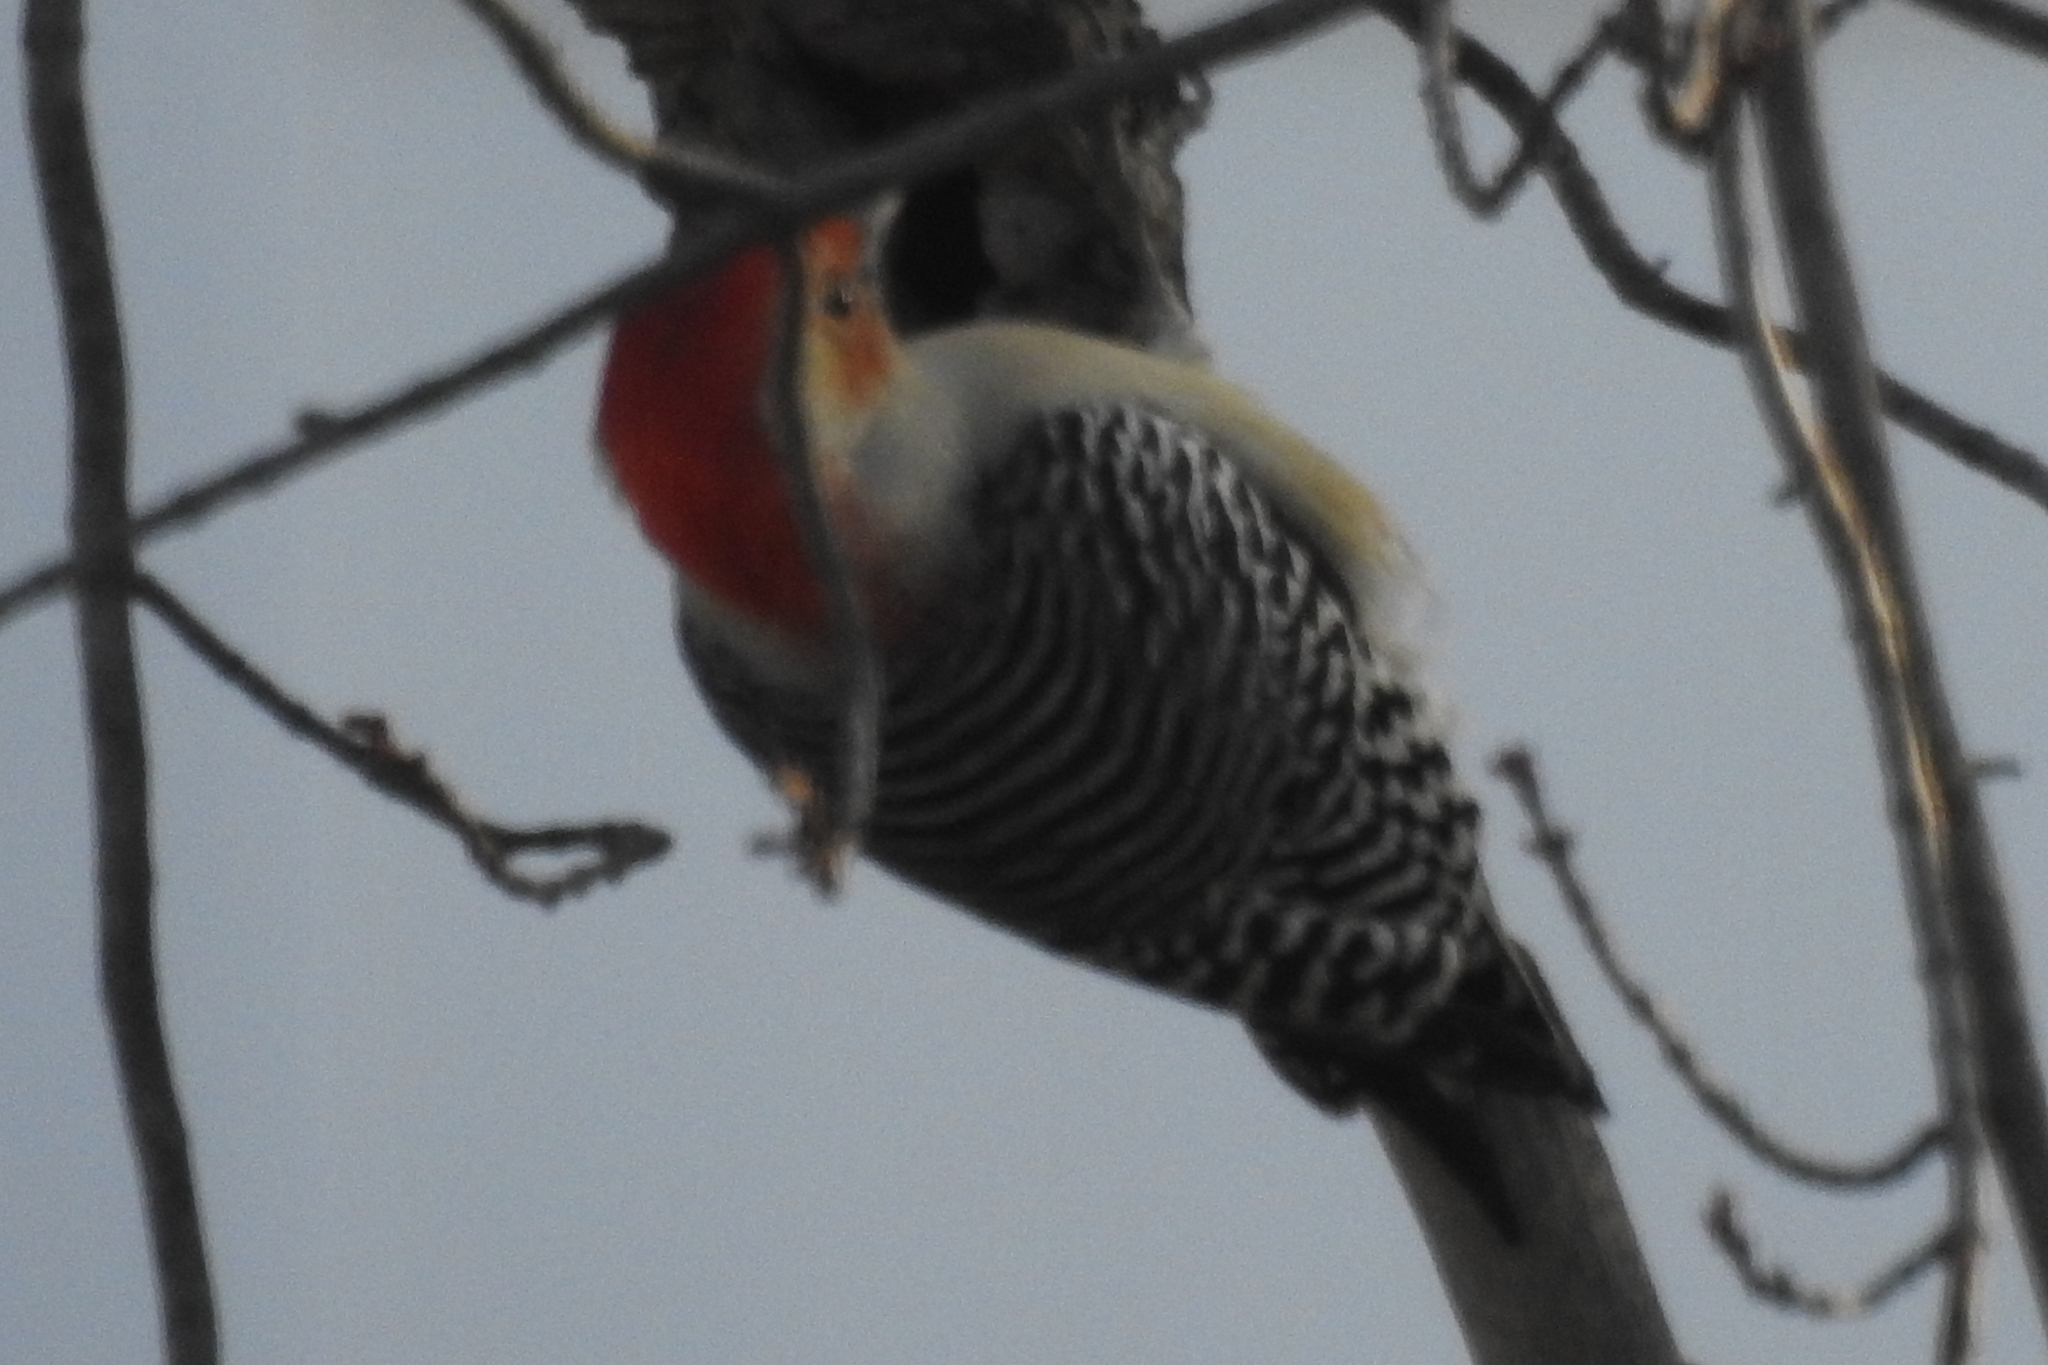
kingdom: Animalia
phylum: Chordata
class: Aves
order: Piciformes
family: Picidae
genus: Melanerpes
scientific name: Melanerpes carolinus
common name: Red-bellied woodpecker
